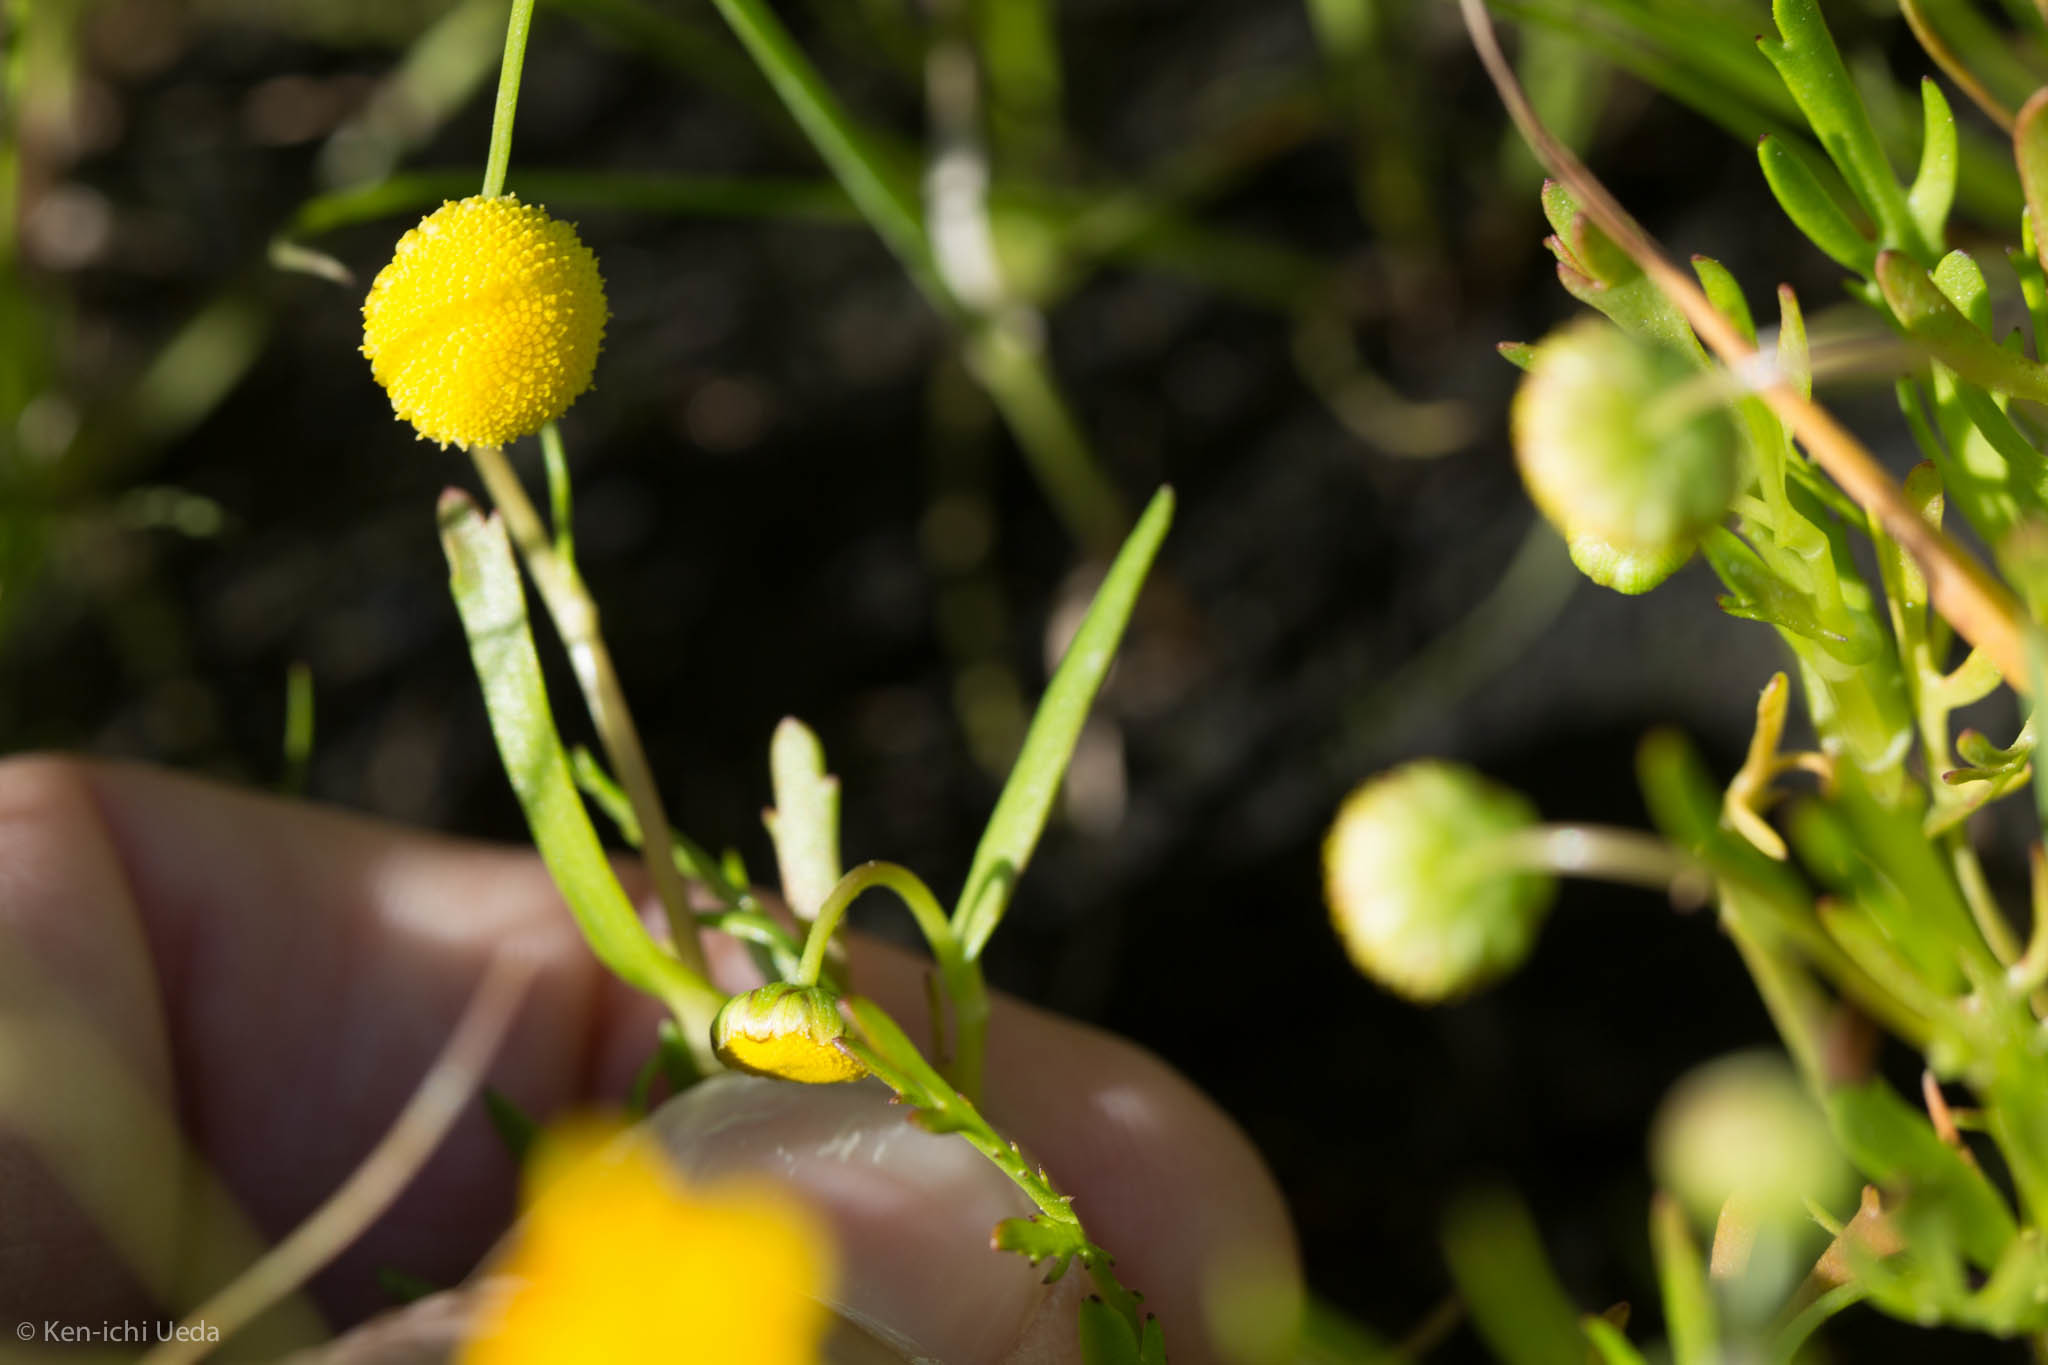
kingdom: Plantae
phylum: Tracheophyta
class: Magnoliopsida
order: Asterales
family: Asteraceae
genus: Cotula
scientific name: Cotula coronopifolia
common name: Buttonweed
